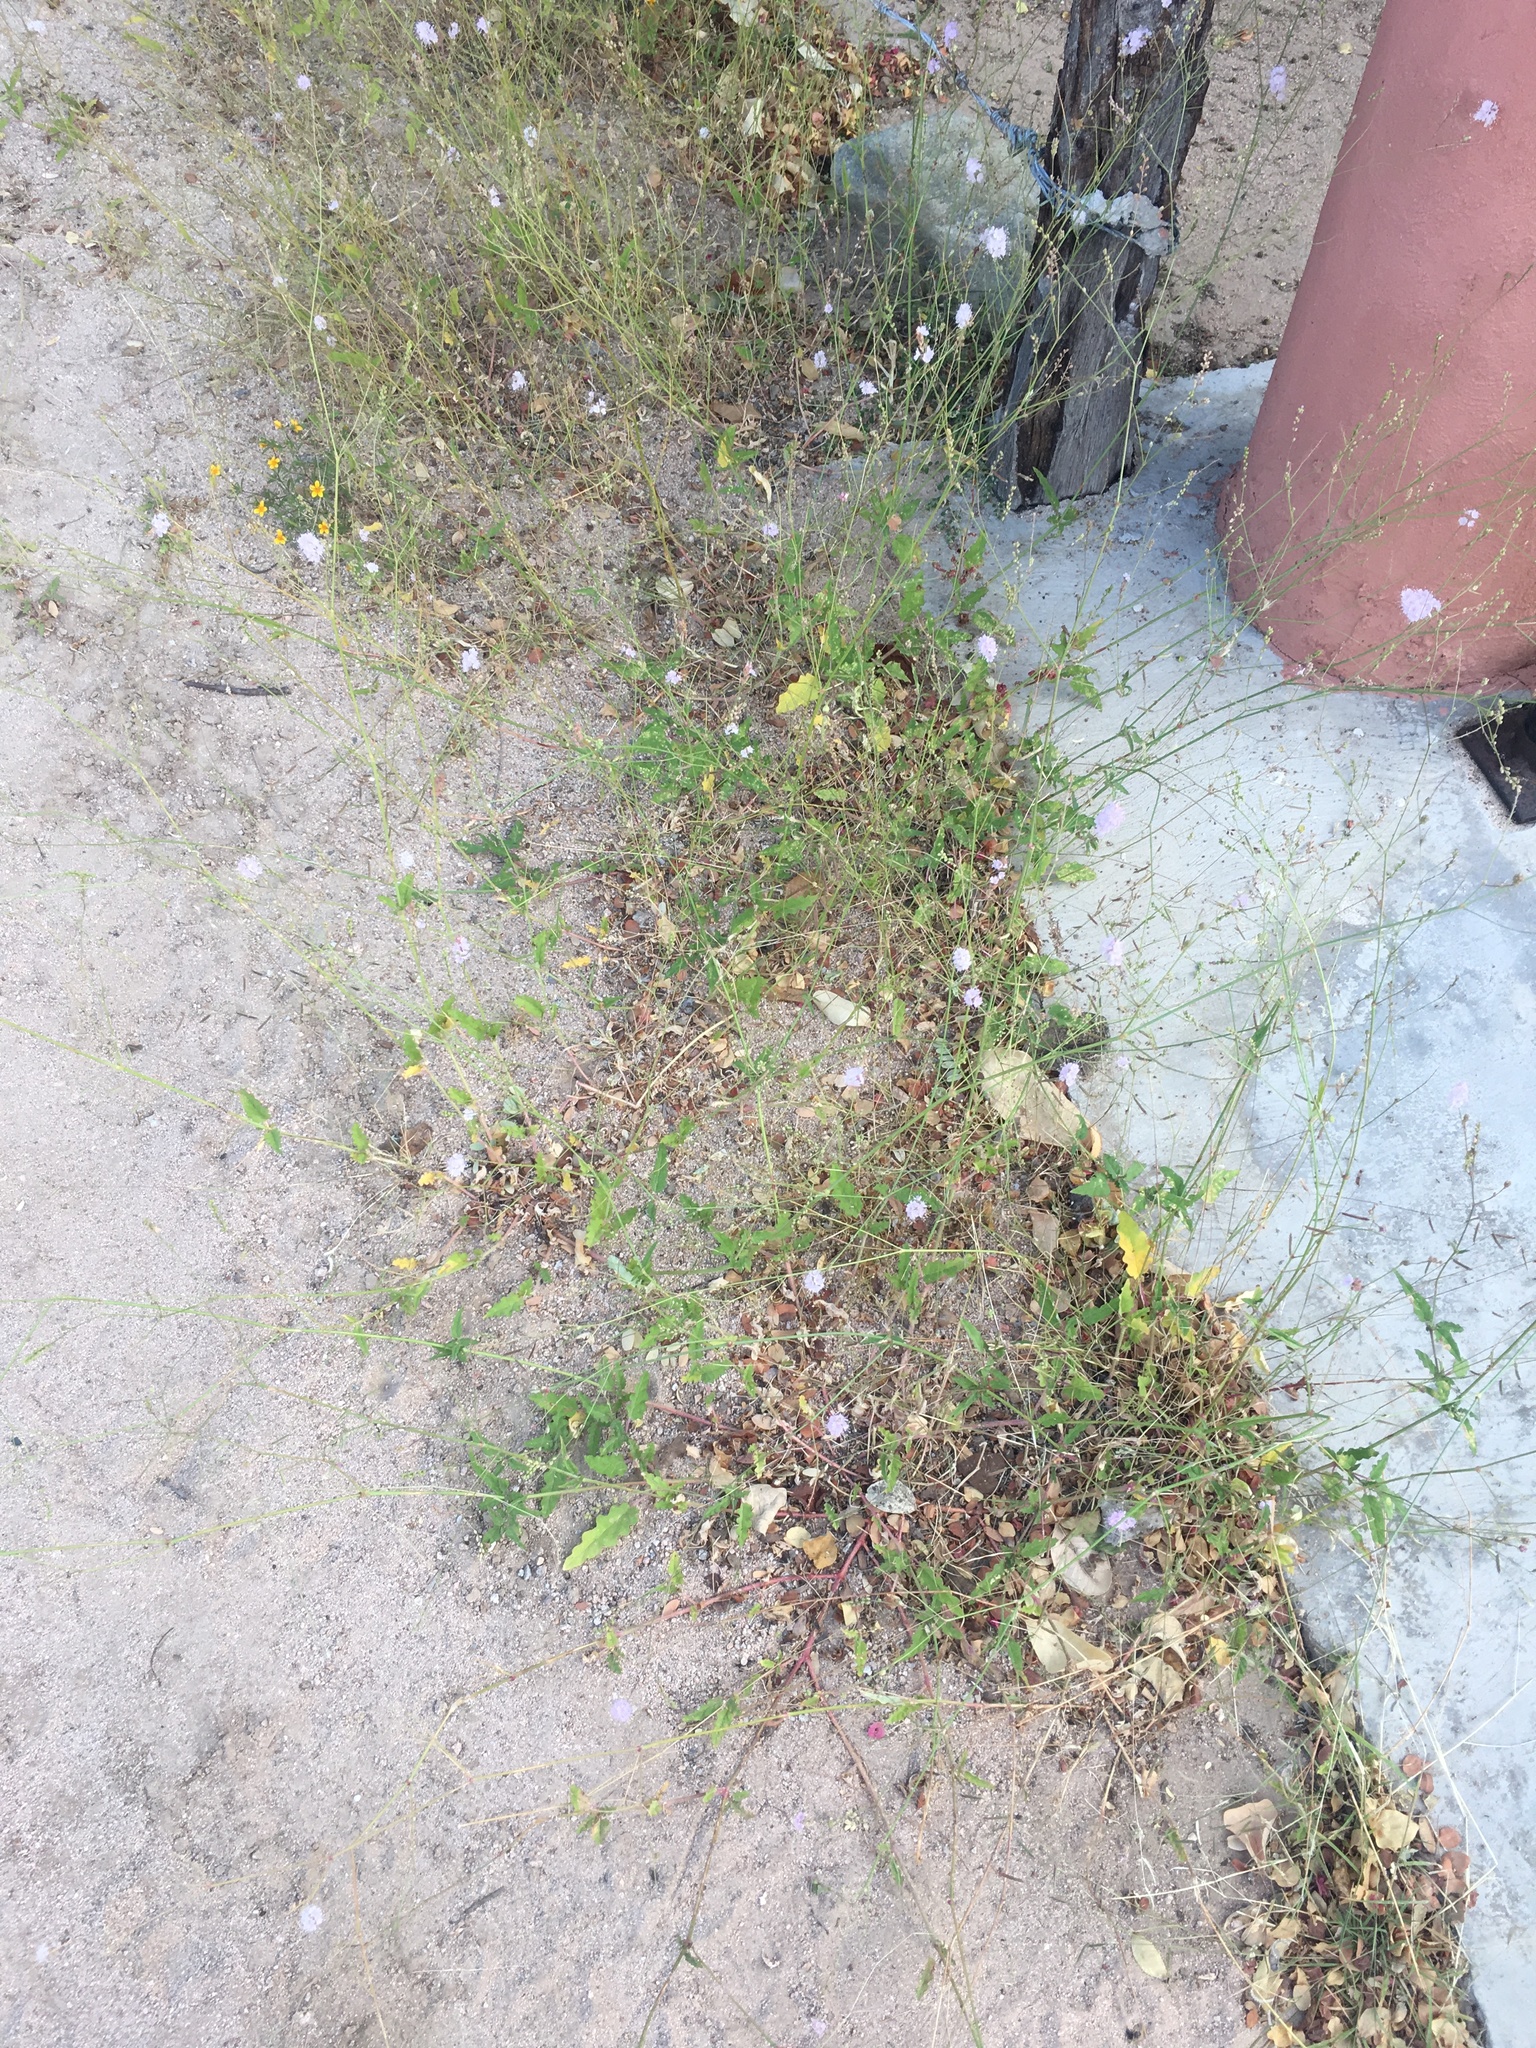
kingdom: Plantae
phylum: Tracheophyta
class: Magnoliopsida
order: Caryophyllales
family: Nyctaginaceae
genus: Boerhavia
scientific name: Boerhavia xantii
